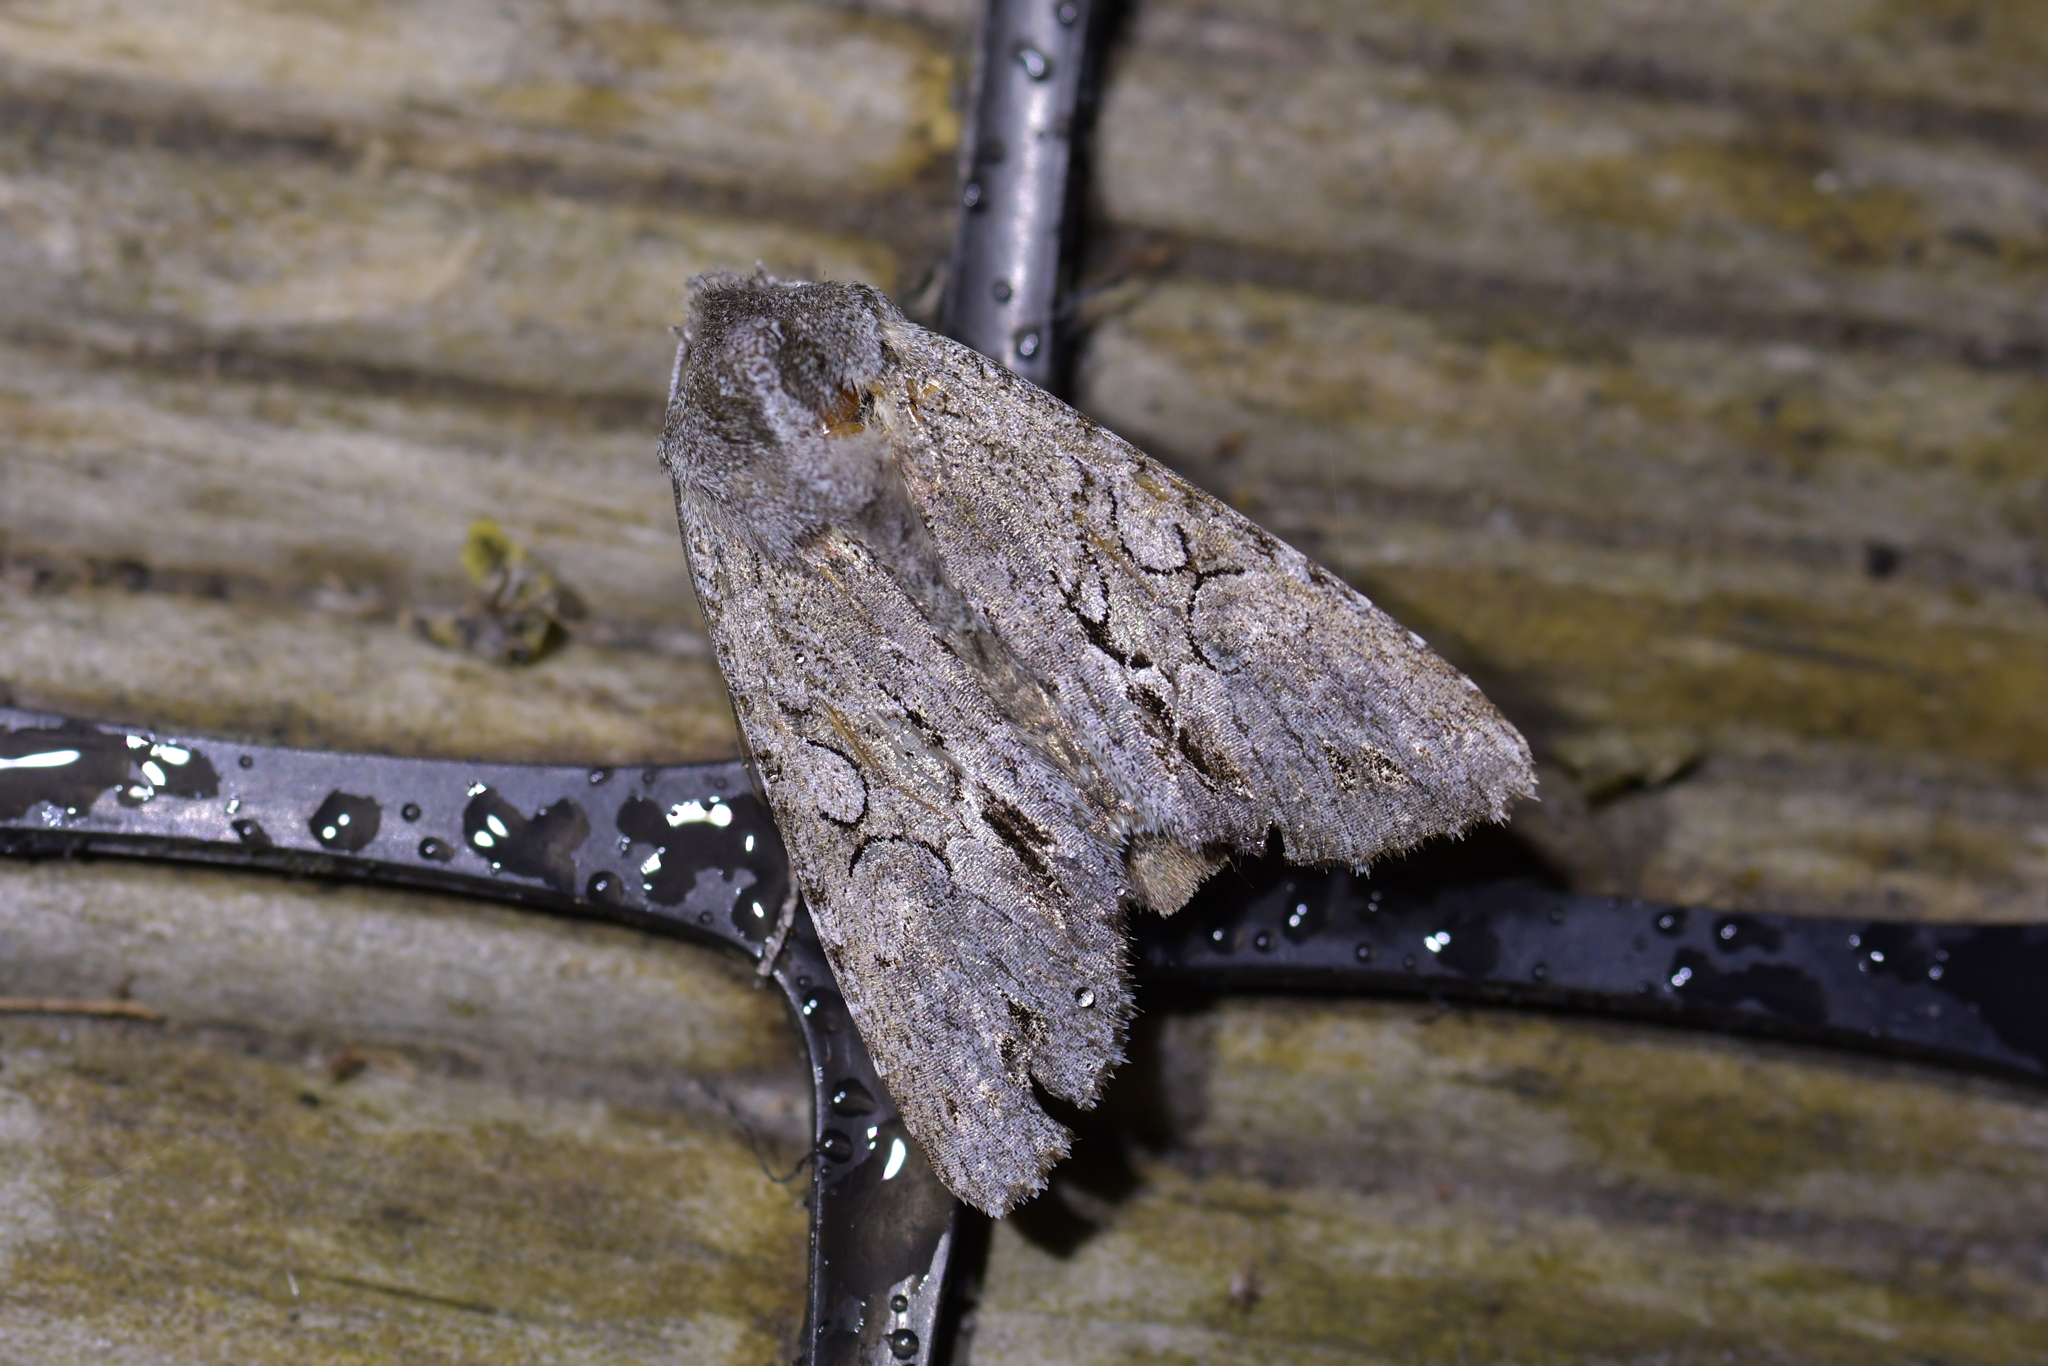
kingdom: Animalia
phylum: Arthropoda
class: Insecta
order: Lepidoptera
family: Noctuidae
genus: Ichneutica
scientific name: Ichneutica
